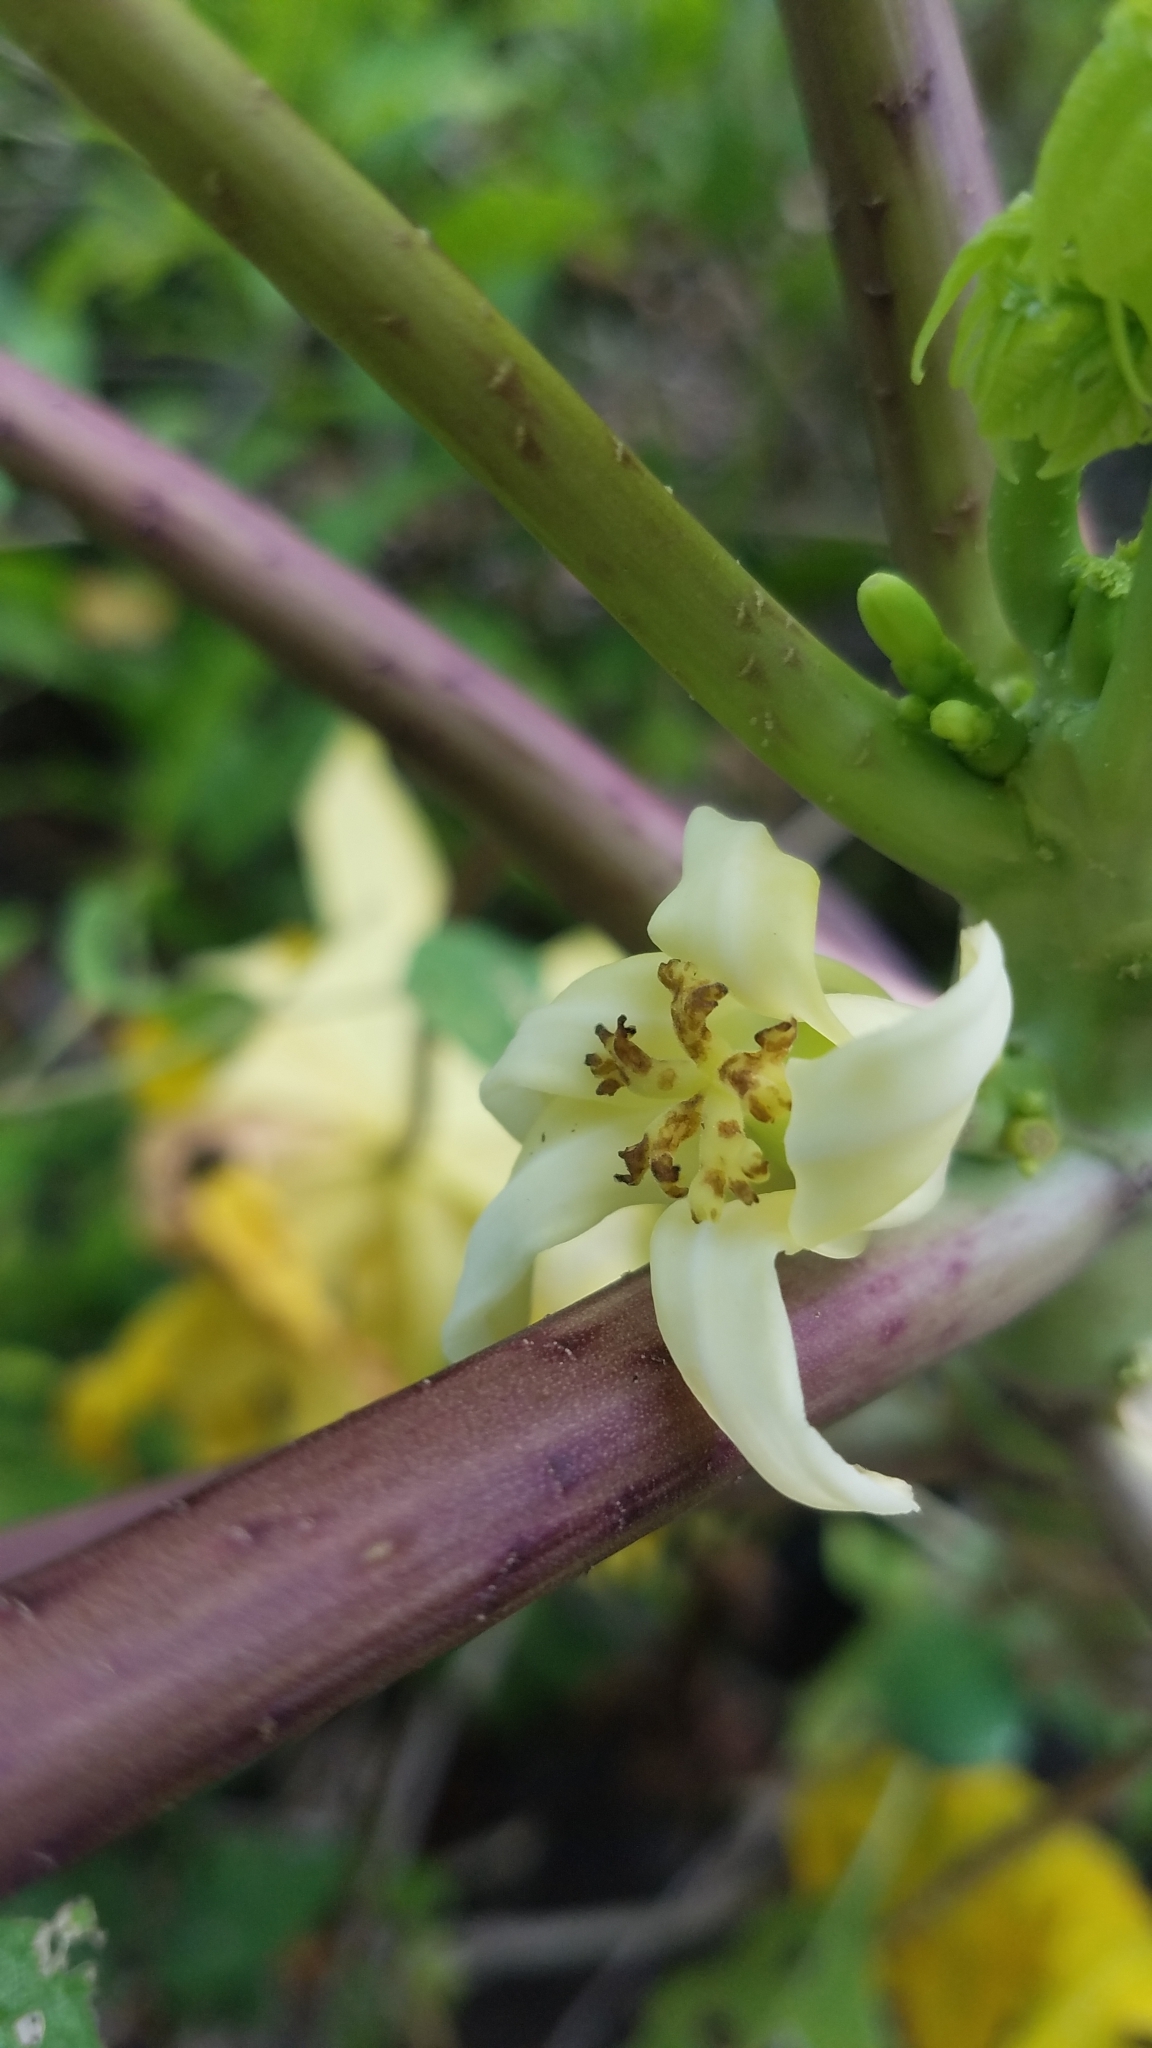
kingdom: Plantae
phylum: Tracheophyta
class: Magnoliopsida
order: Brassicales
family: Caricaceae
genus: Carica
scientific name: Carica papaya
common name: Papaya
